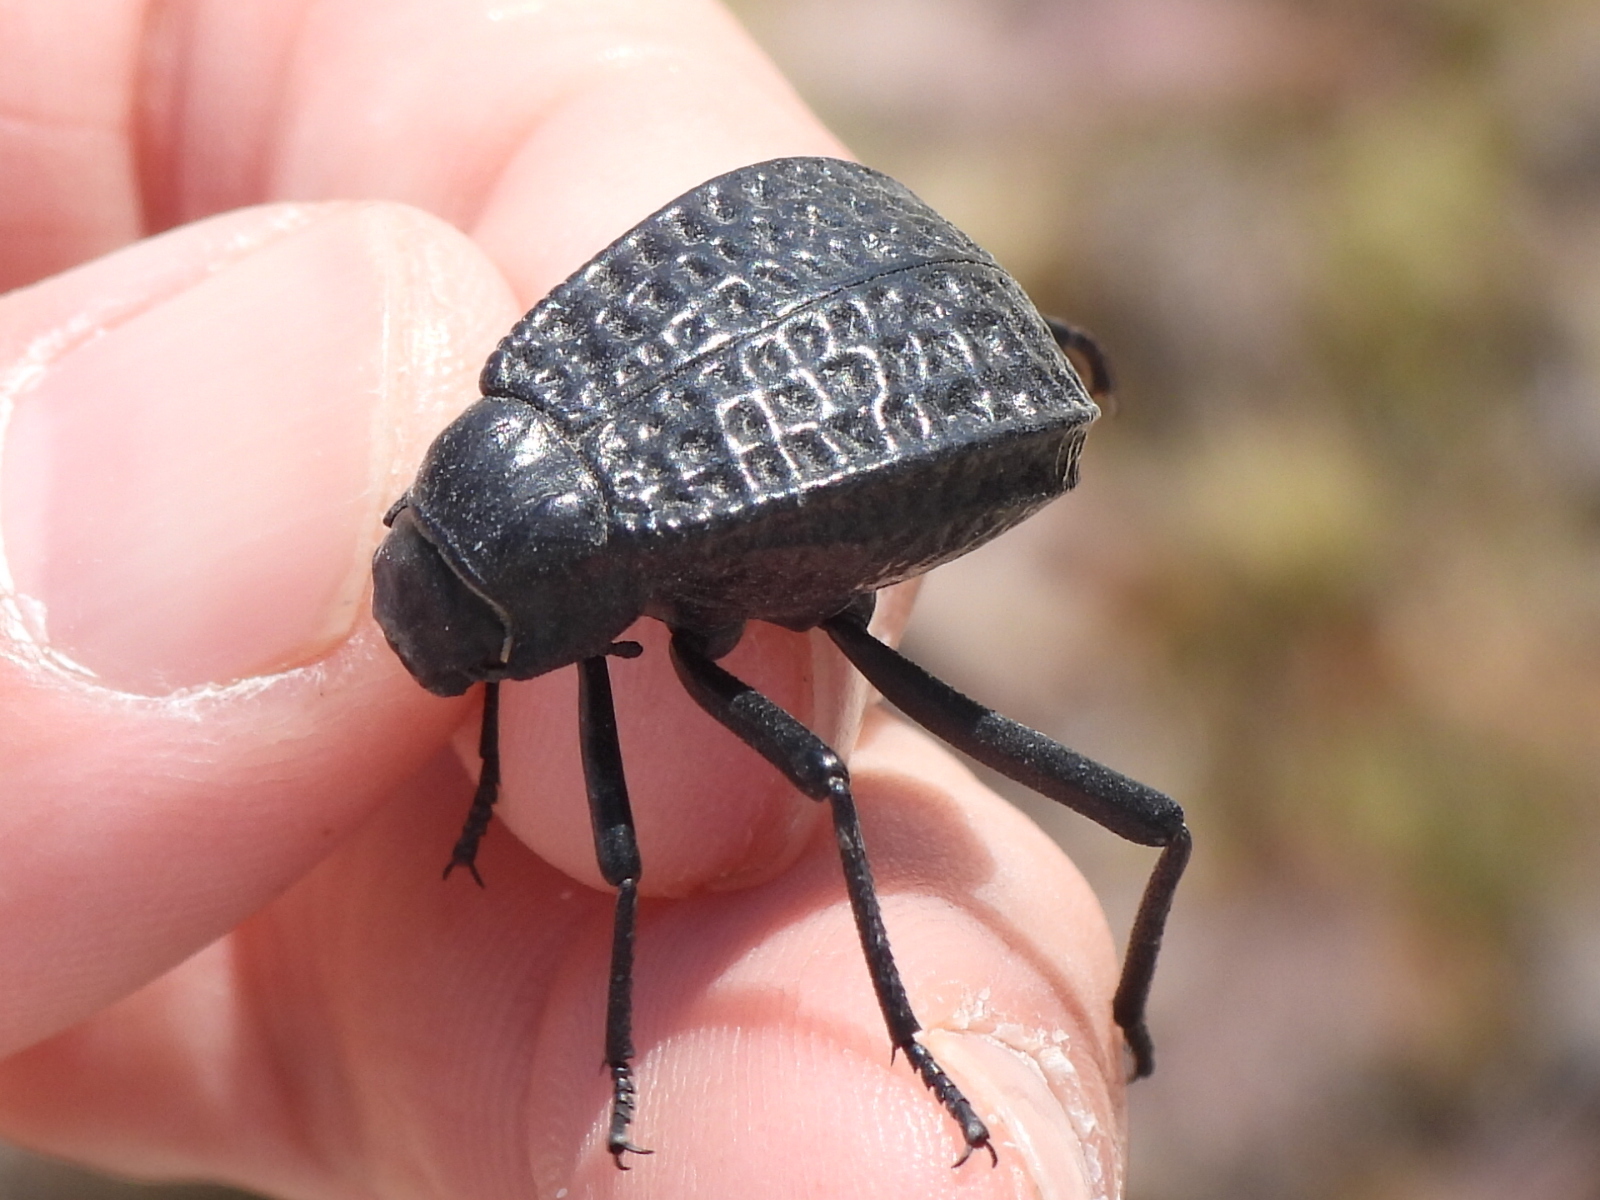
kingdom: Animalia
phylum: Arthropoda
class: Insecta
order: Coleoptera
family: Tenebrionidae
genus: Adesmia
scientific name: Adesmia cancellata
